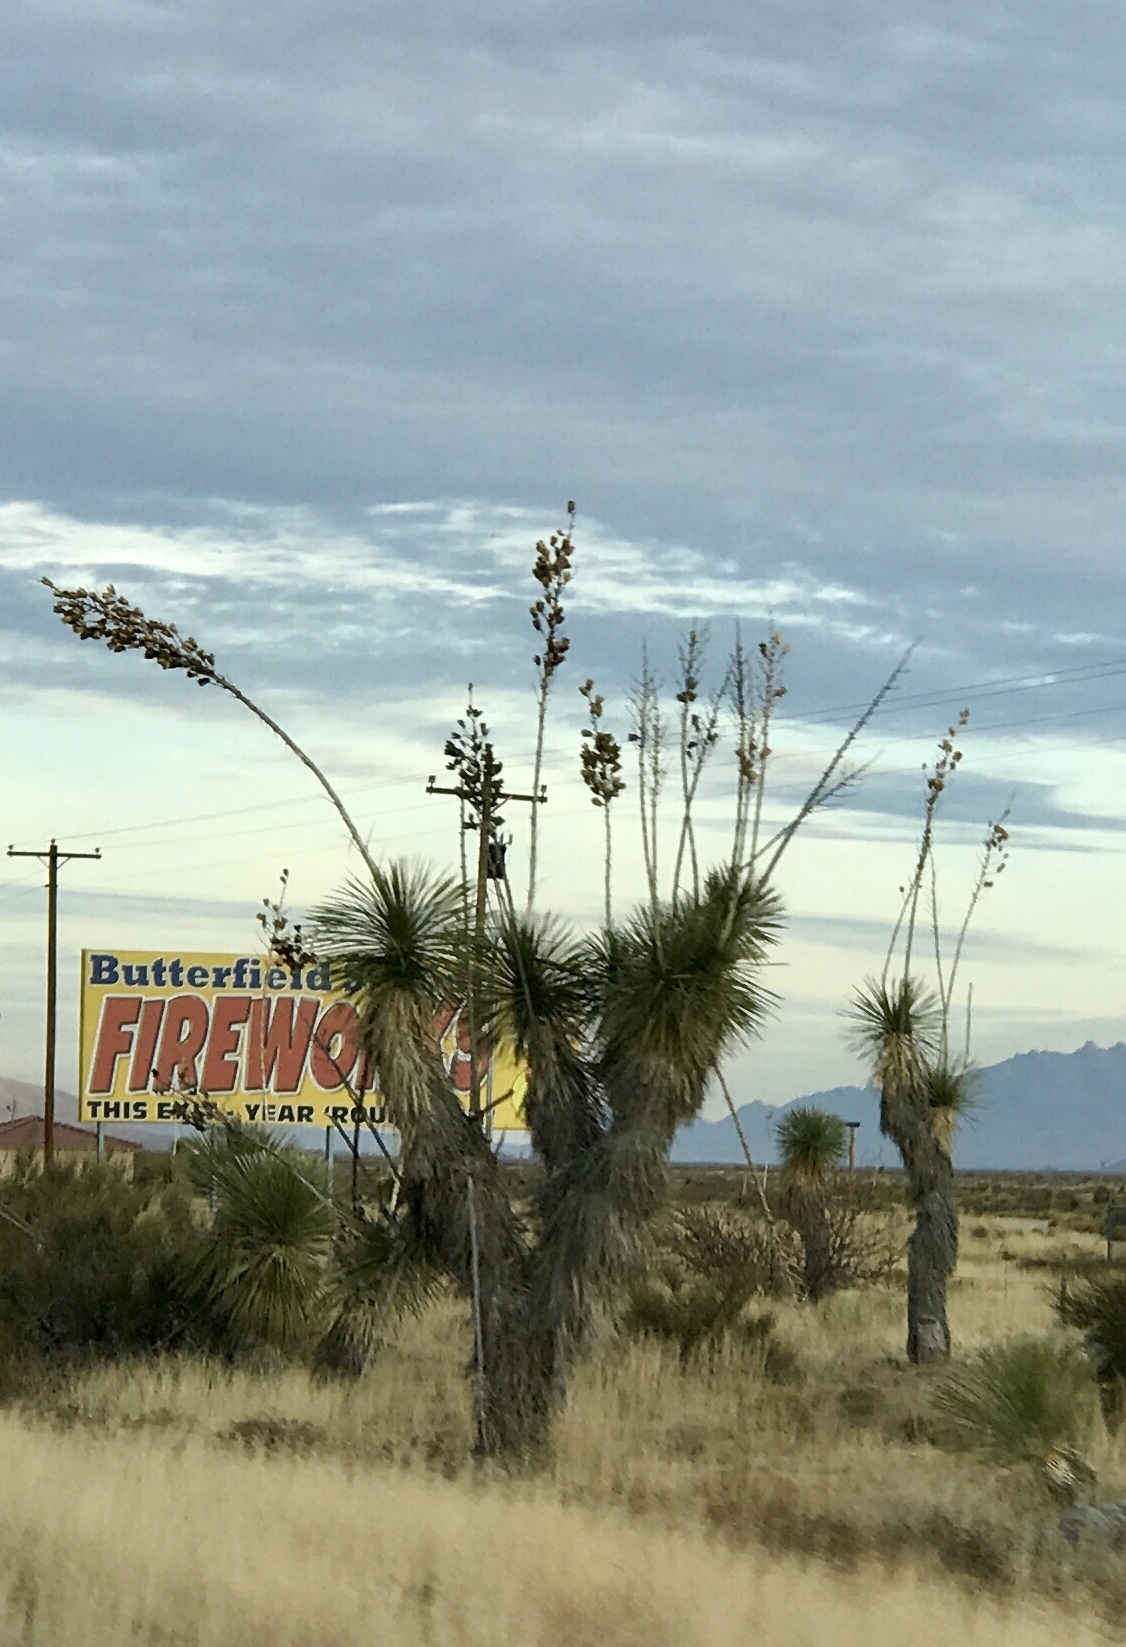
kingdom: Plantae
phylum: Tracheophyta
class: Liliopsida
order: Asparagales
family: Asparagaceae
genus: Yucca
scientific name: Yucca elata
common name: Palmella
